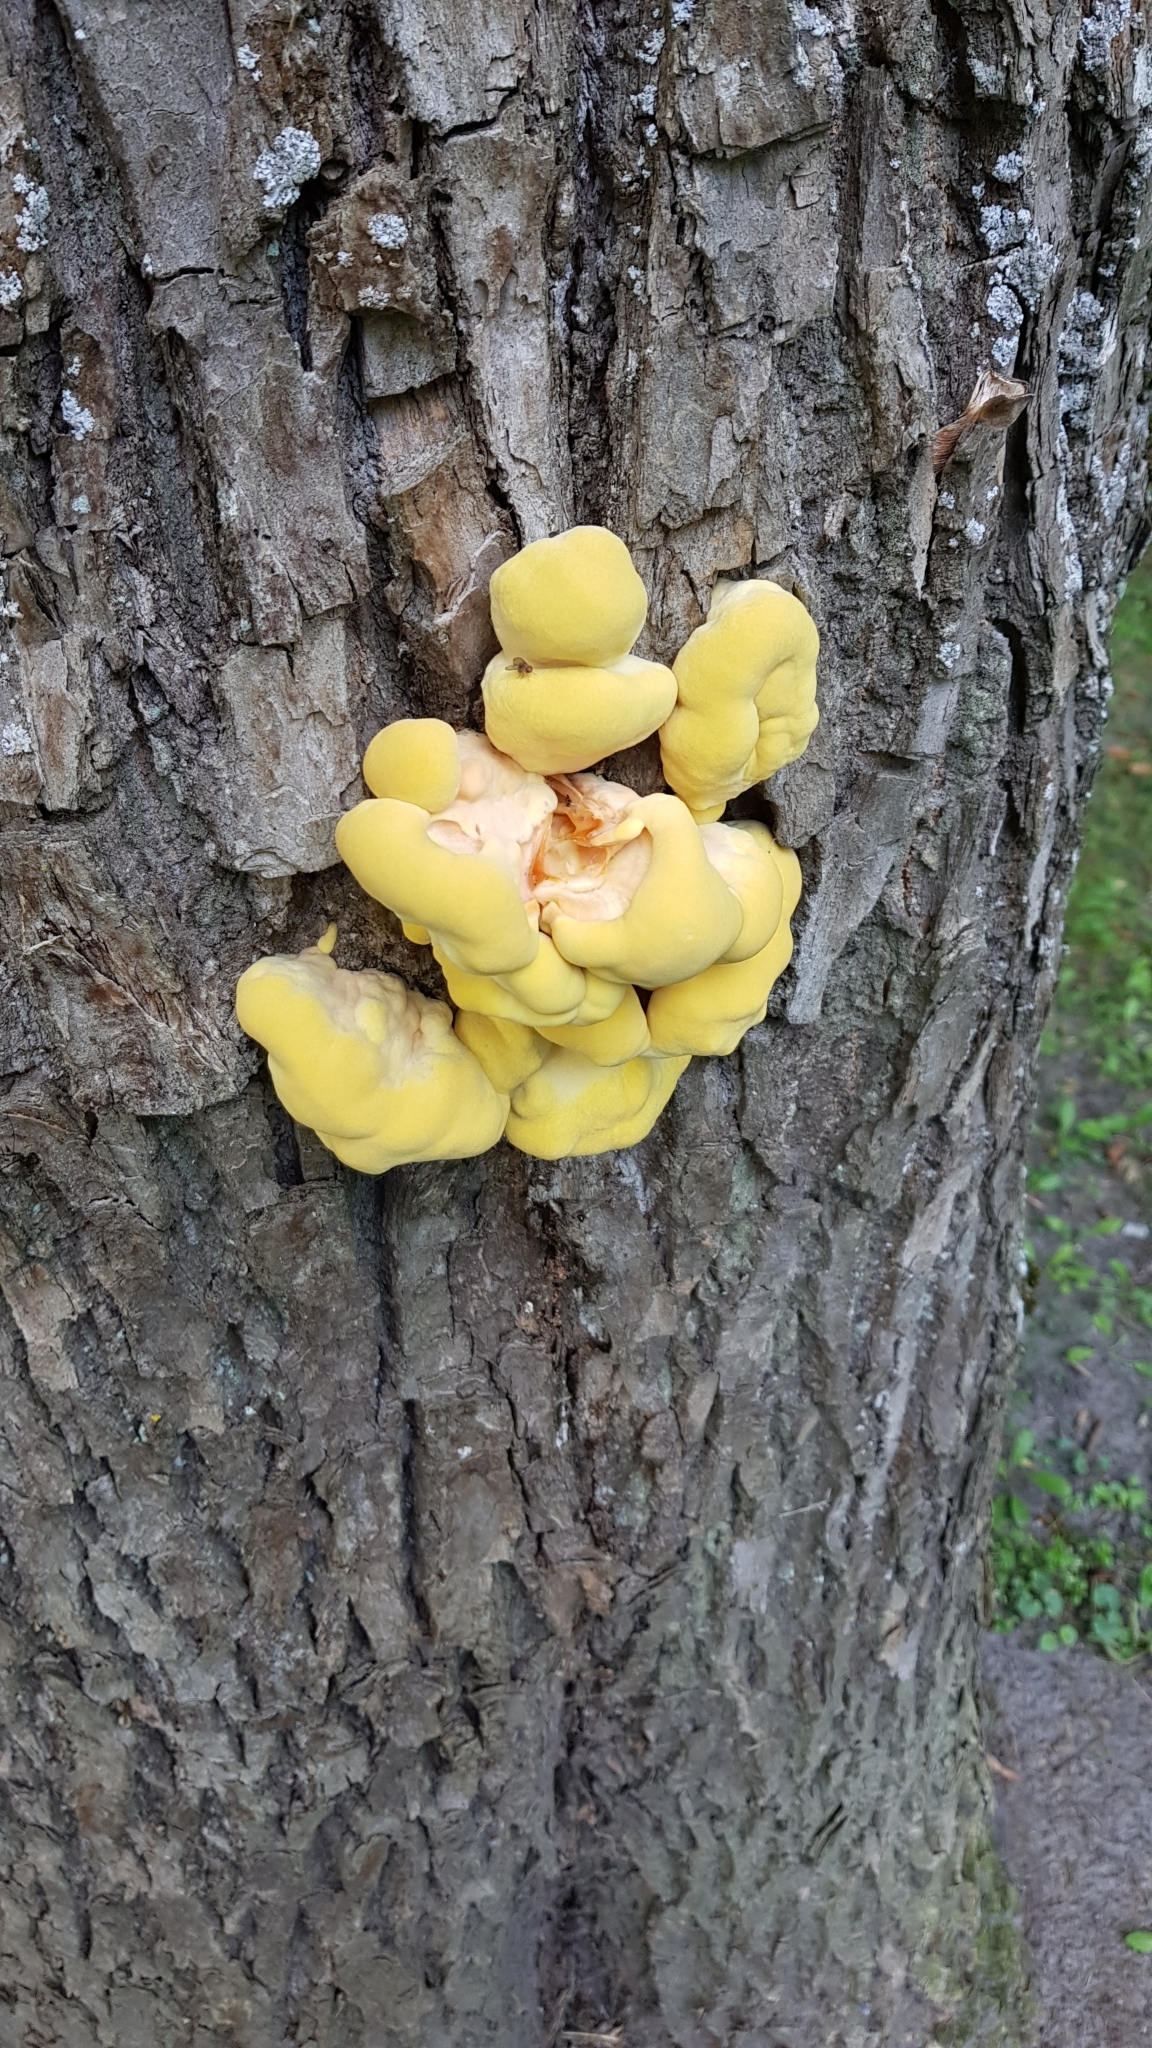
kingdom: Fungi
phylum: Basidiomycota
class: Agaricomycetes
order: Polyporales
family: Laetiporaceae
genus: Laetiporus
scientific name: Laetiporus sulphureus
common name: Chicken of the woods
